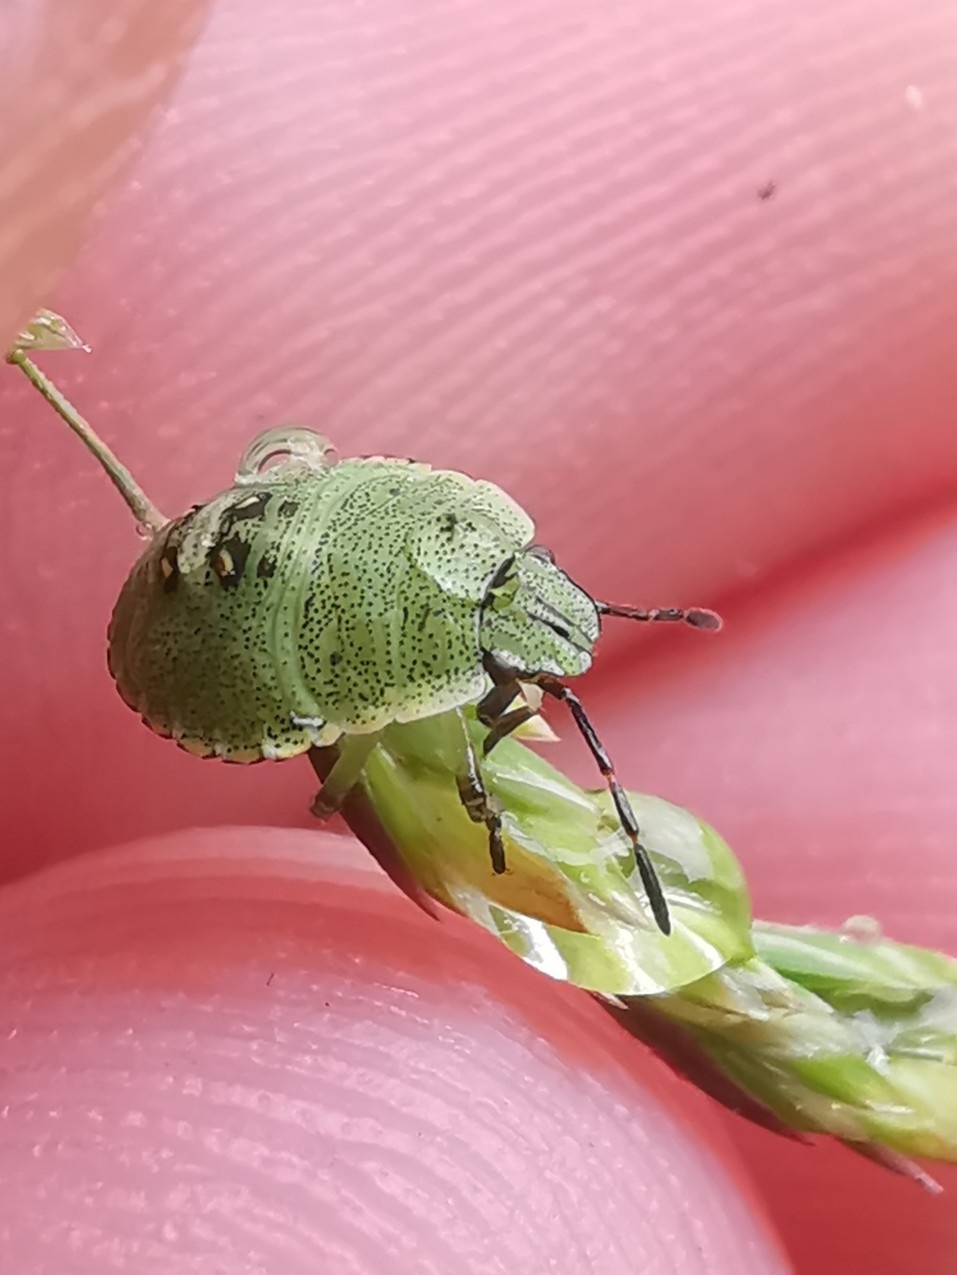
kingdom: Animalia
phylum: Arthropoda
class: Insecta
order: Hemiptera
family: Pentatomidae
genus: Palomena
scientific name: Palomena prasina
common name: Green shieldbug
